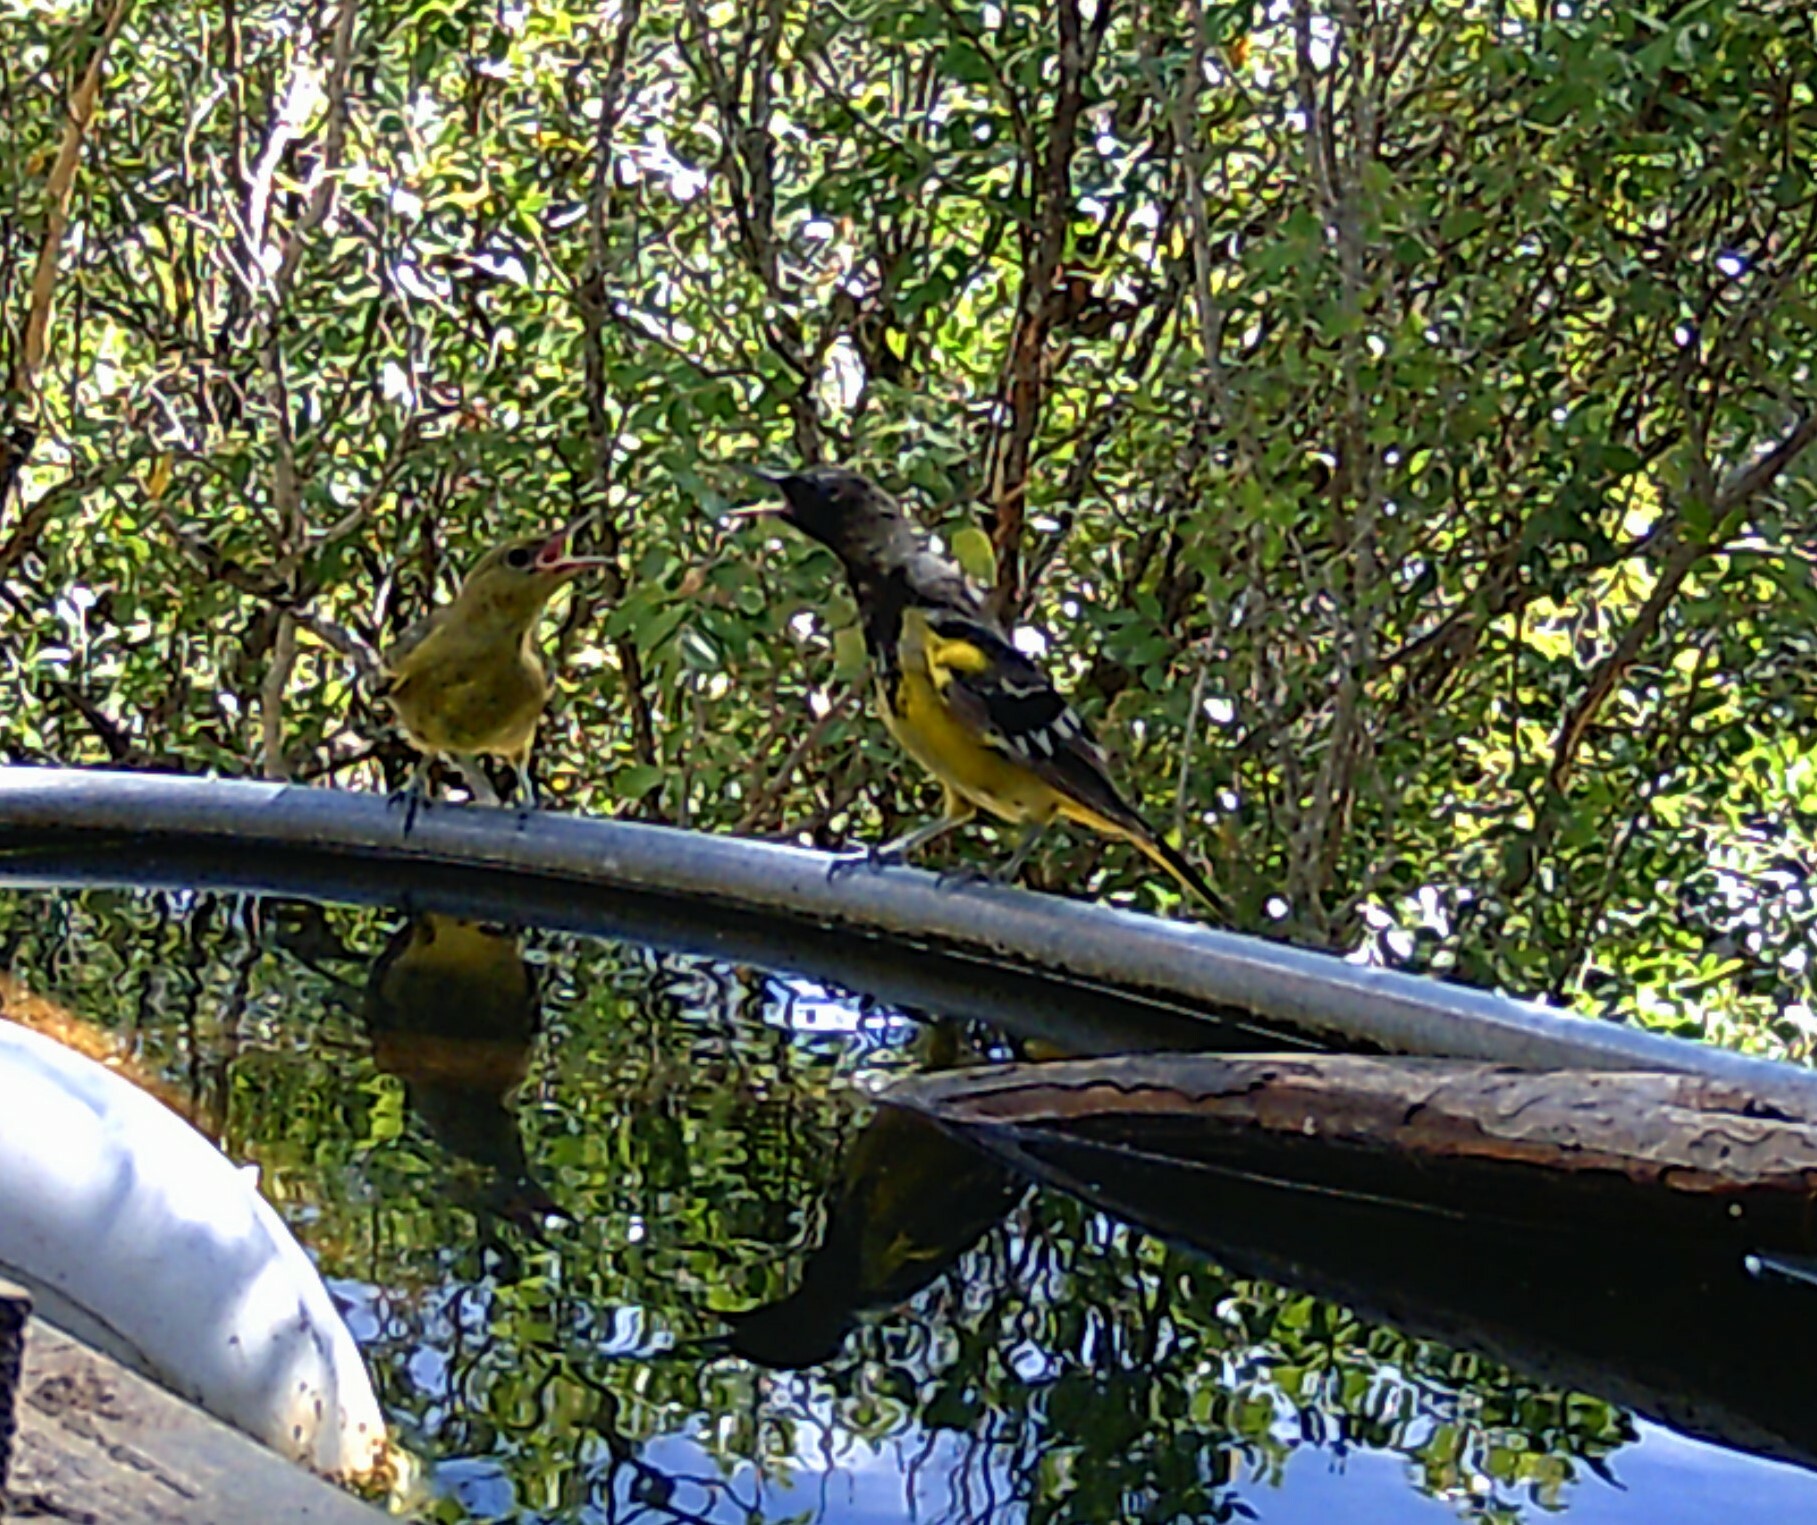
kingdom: Animalia
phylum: Chordata
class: Aves
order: Passeriformes
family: Icteridae
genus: Icterus
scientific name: Icterus parisorum
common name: Scott's oriole
